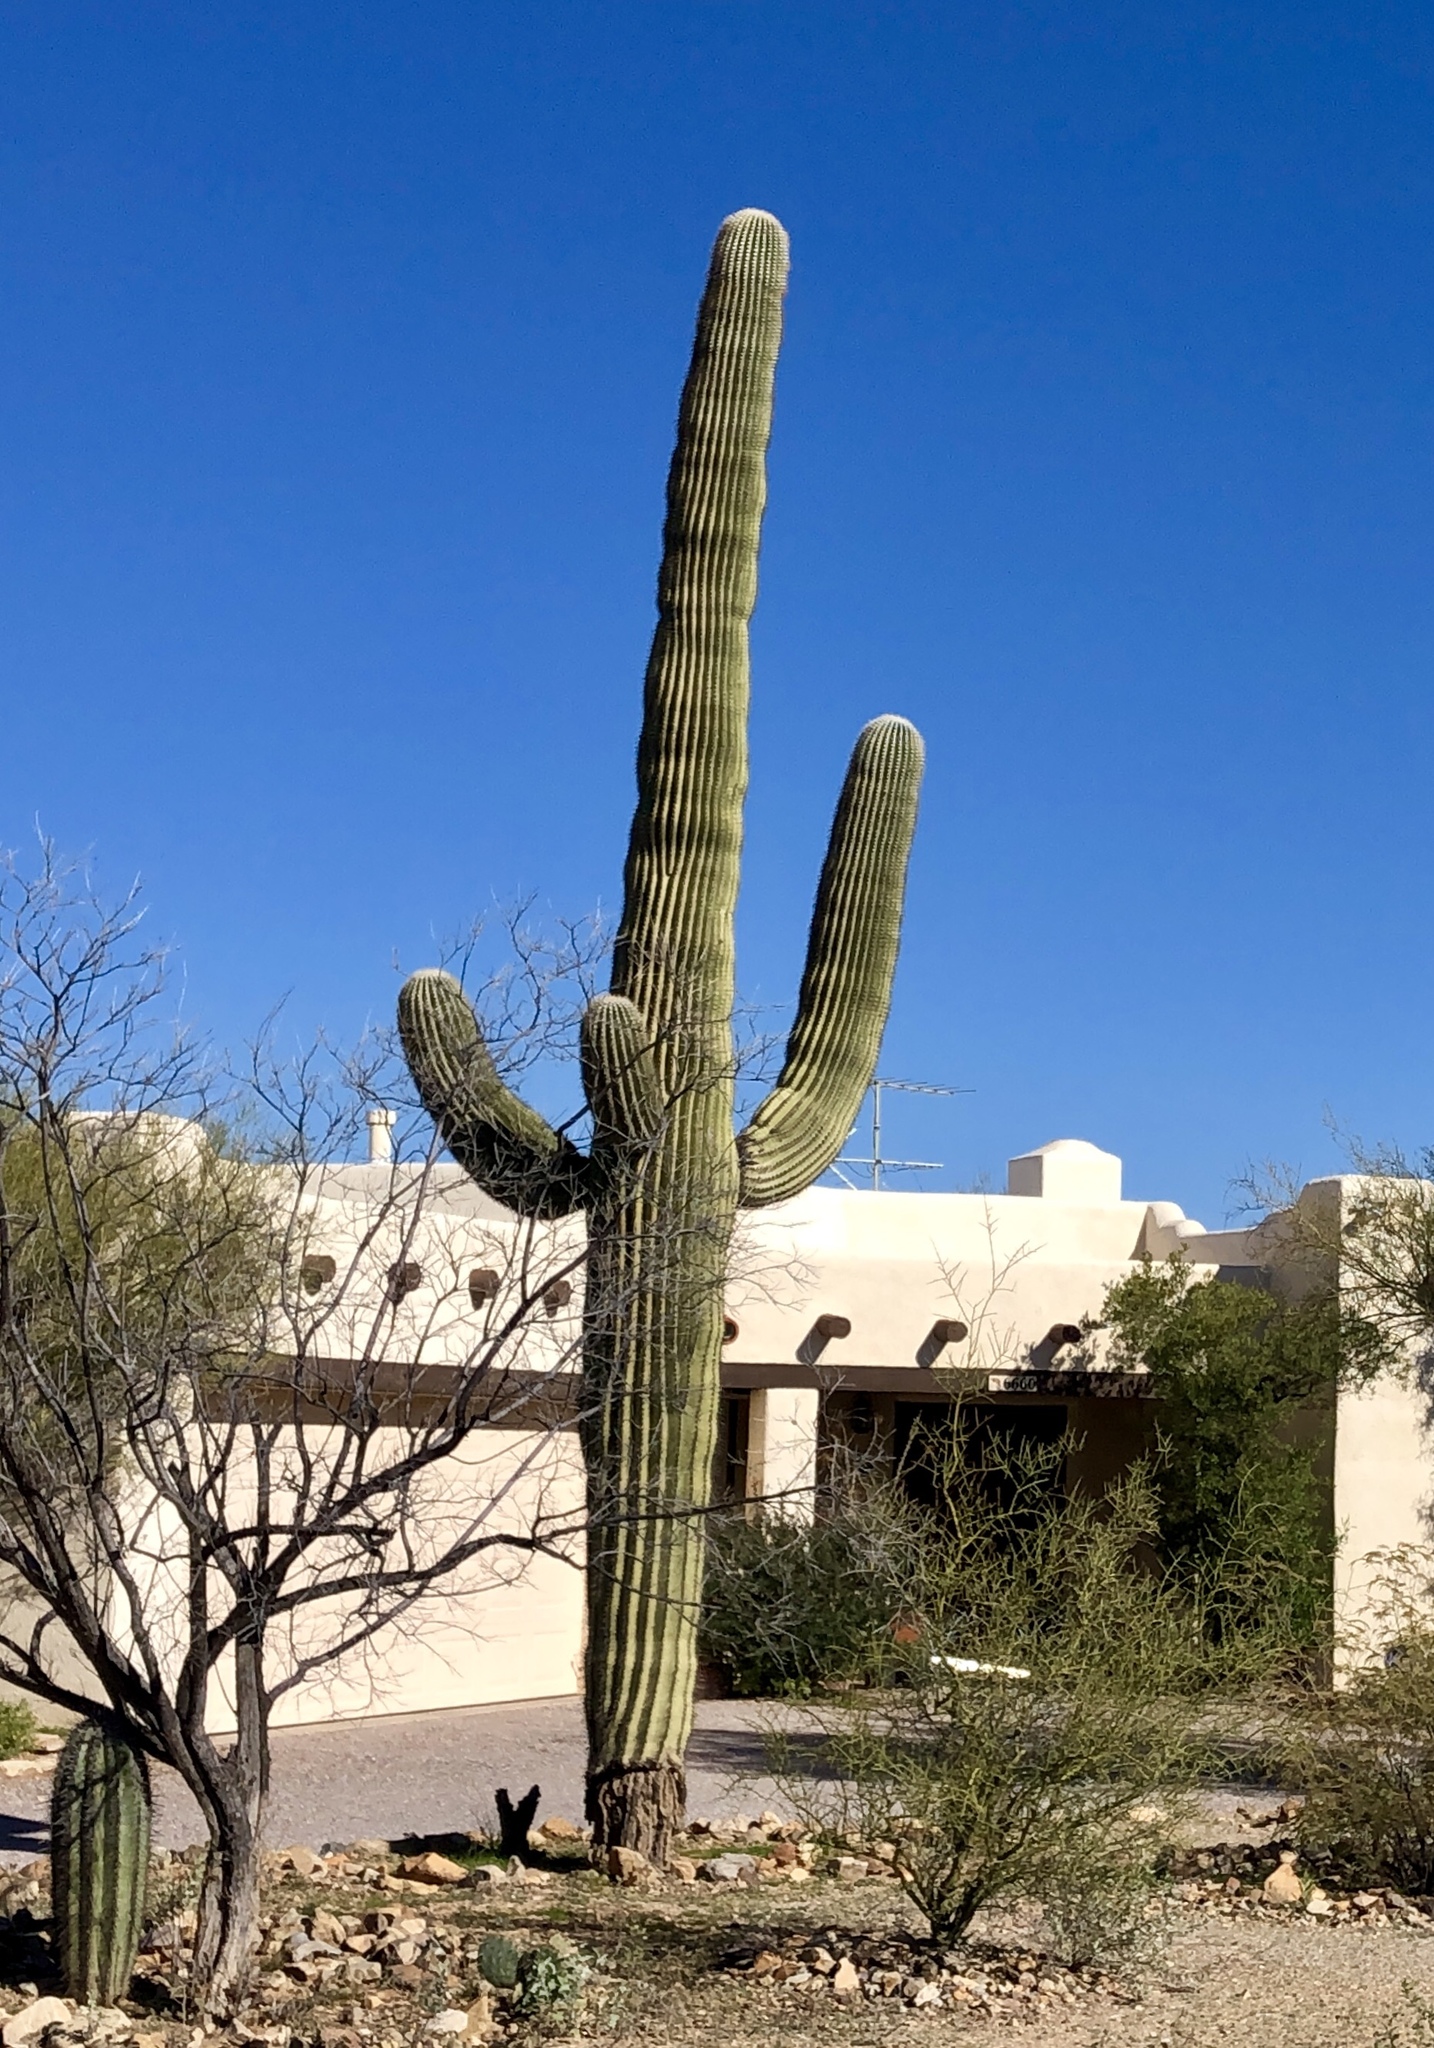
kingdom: Plantae
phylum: Tracheophyta
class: Magnoliopsida
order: Caryophyllales
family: Cactaceae
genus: Carnegiea
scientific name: Carnegiea gigantea
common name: Saguaro
